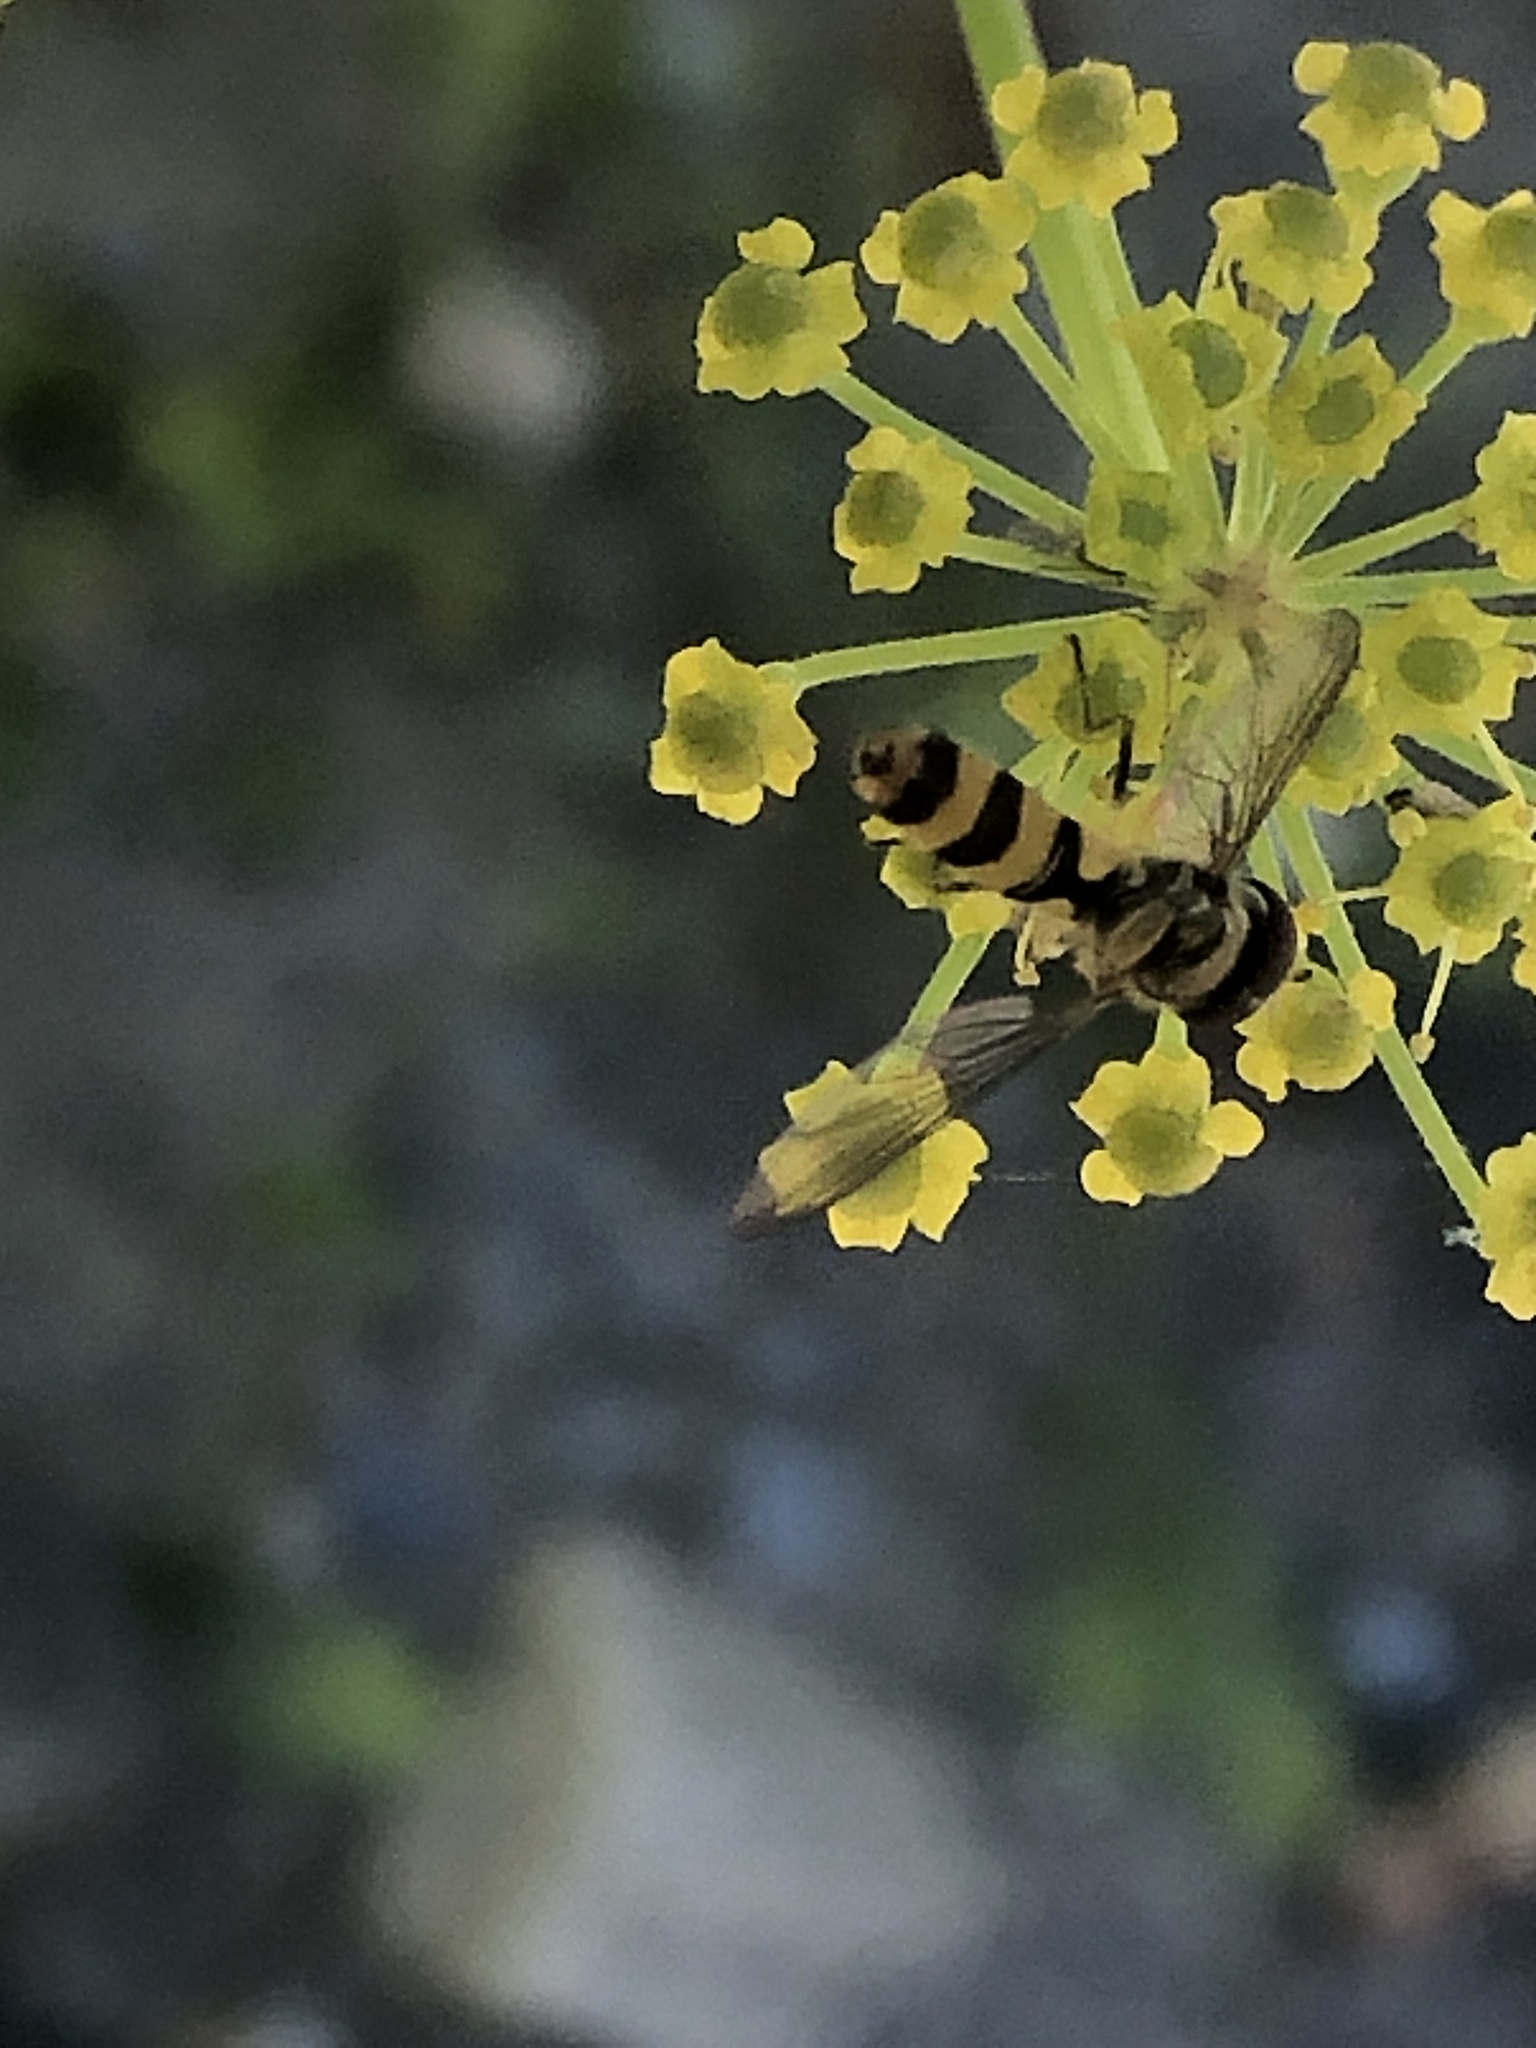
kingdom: Animalia
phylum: Arthropoda
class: Insecta
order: Diptera
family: Syrphidae
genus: Meliscaeva
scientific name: Meliscaeva cinctella
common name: American thintail fly
